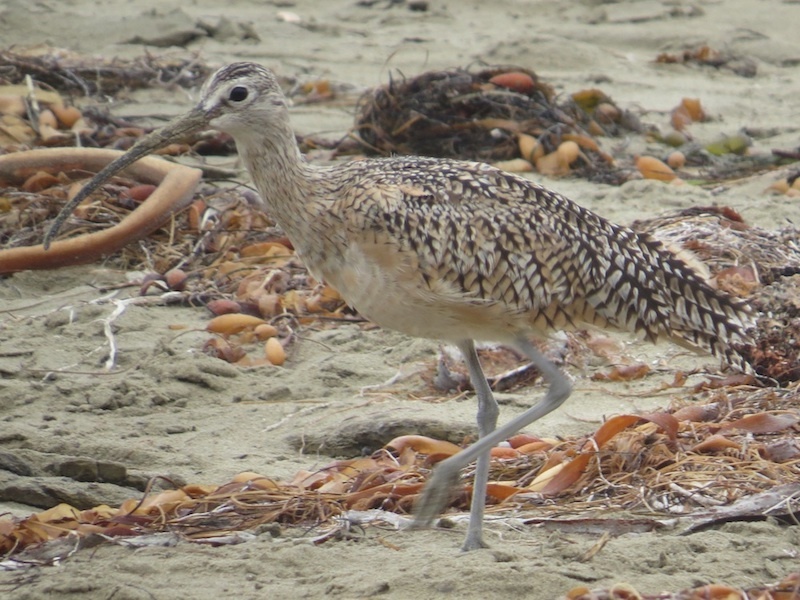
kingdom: Animalia
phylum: Chordata
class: Aves
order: Charadriiformes
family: Scolopacidae
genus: Numenius
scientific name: Numenius americanus
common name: Long-billed curlew
